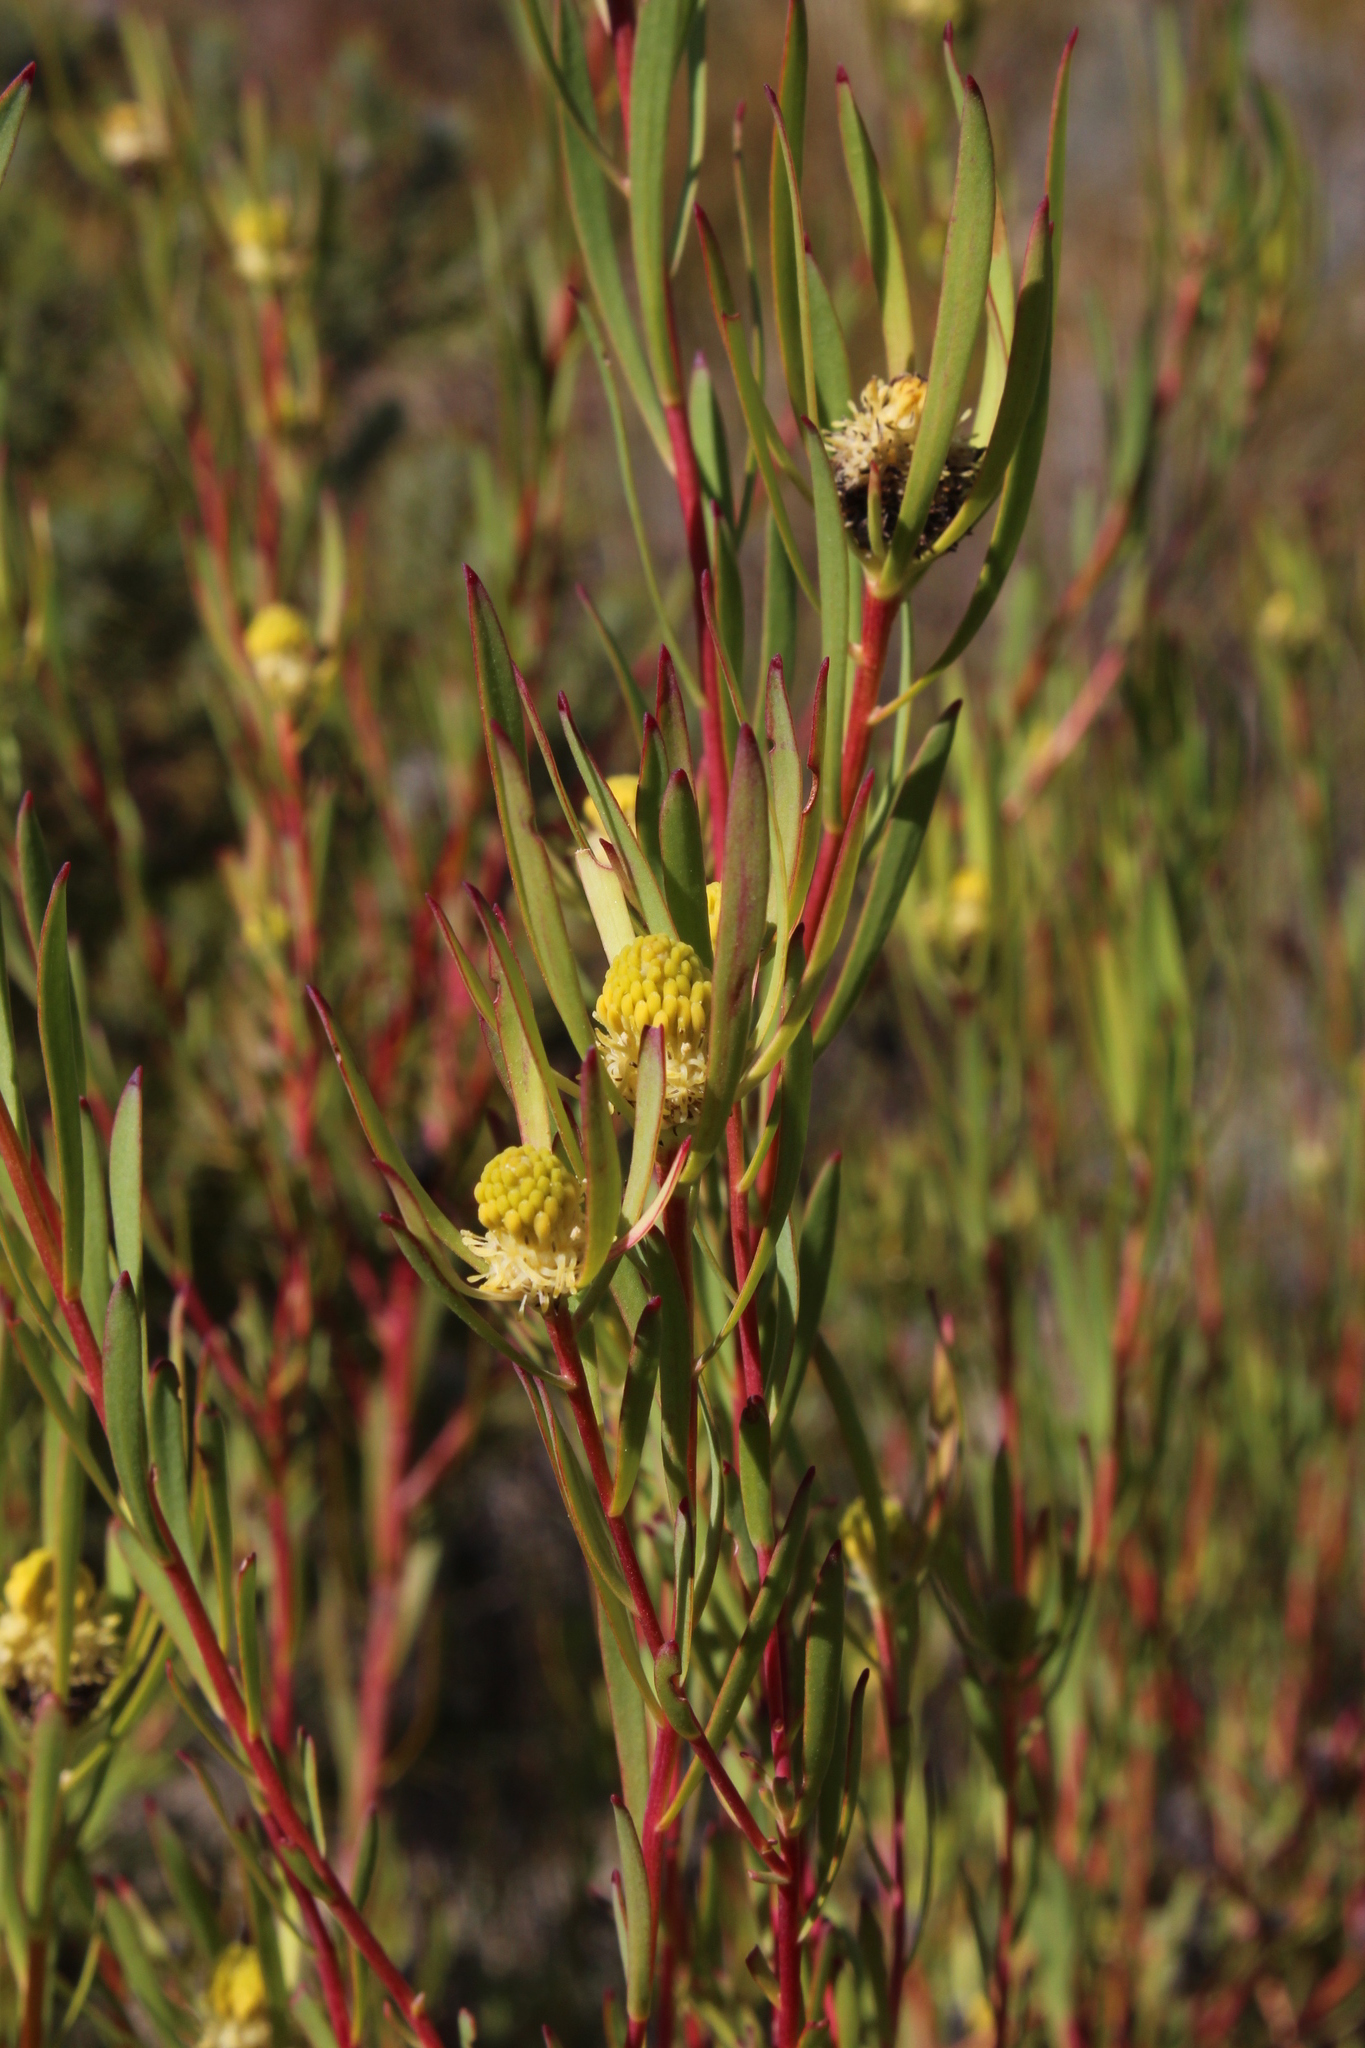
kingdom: Plantae
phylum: Tracheophyta
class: Magnoliopsida
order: Proteales
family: Proteaceae
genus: Leucadendron
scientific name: Leucadendron
